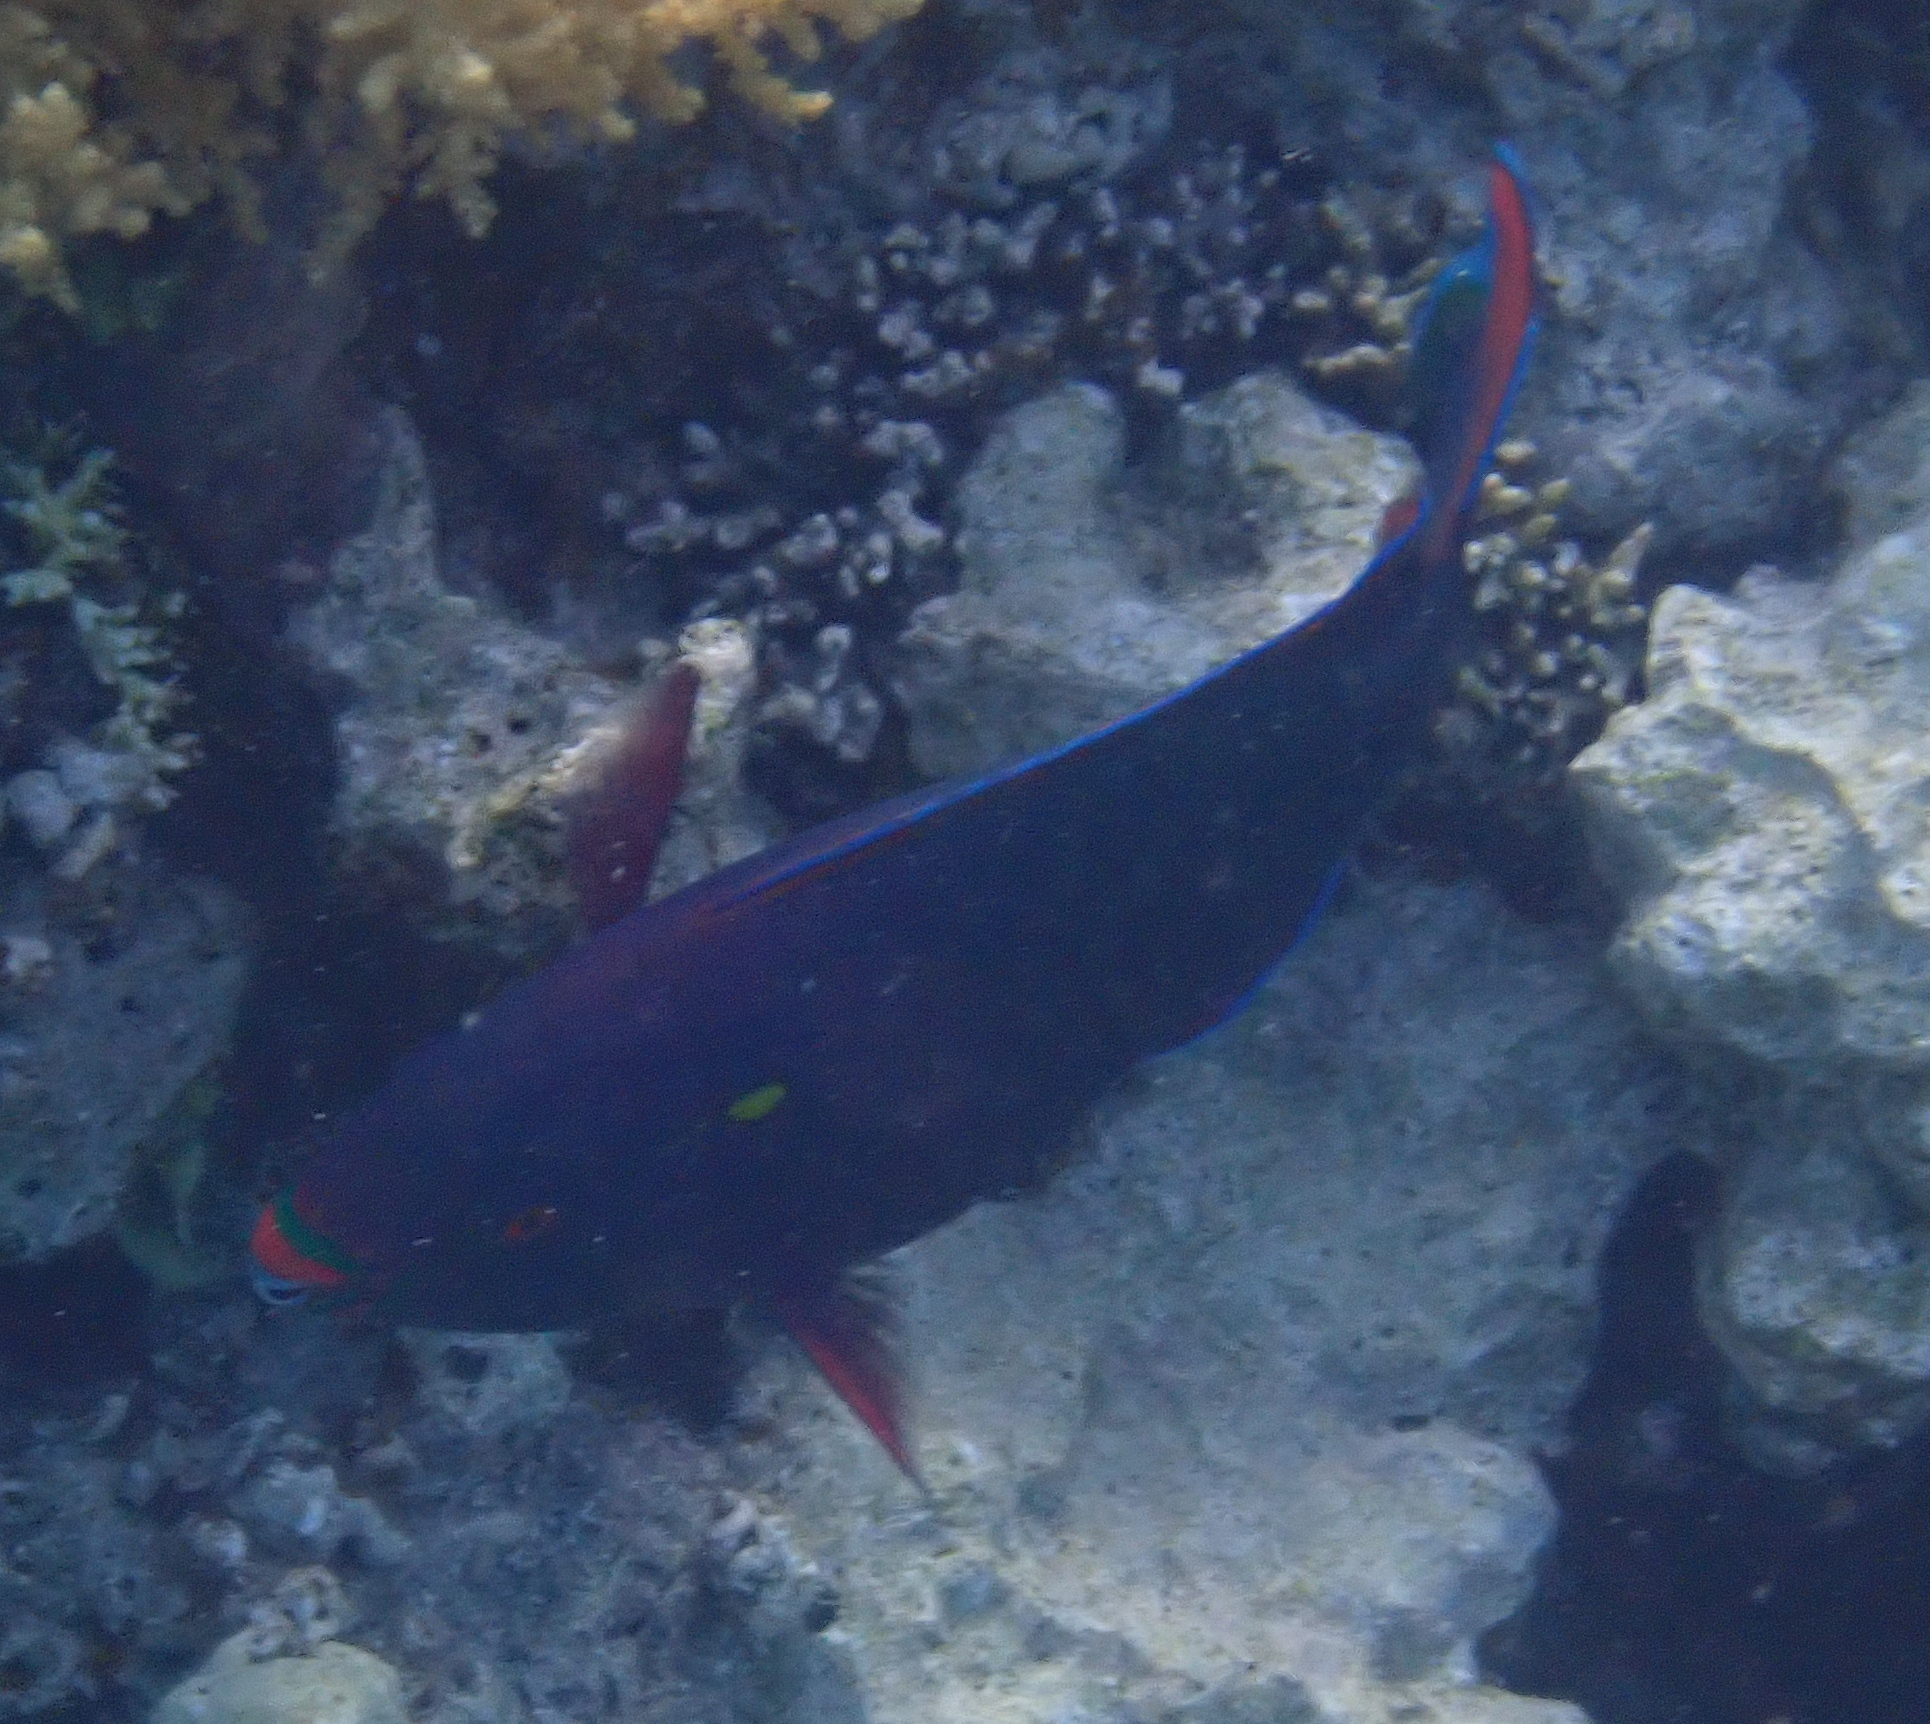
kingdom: Animalia
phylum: Chordata
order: Perciformes
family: Scaridae
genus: Scarus
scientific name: Scarus niger
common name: Dusky parrotfish
